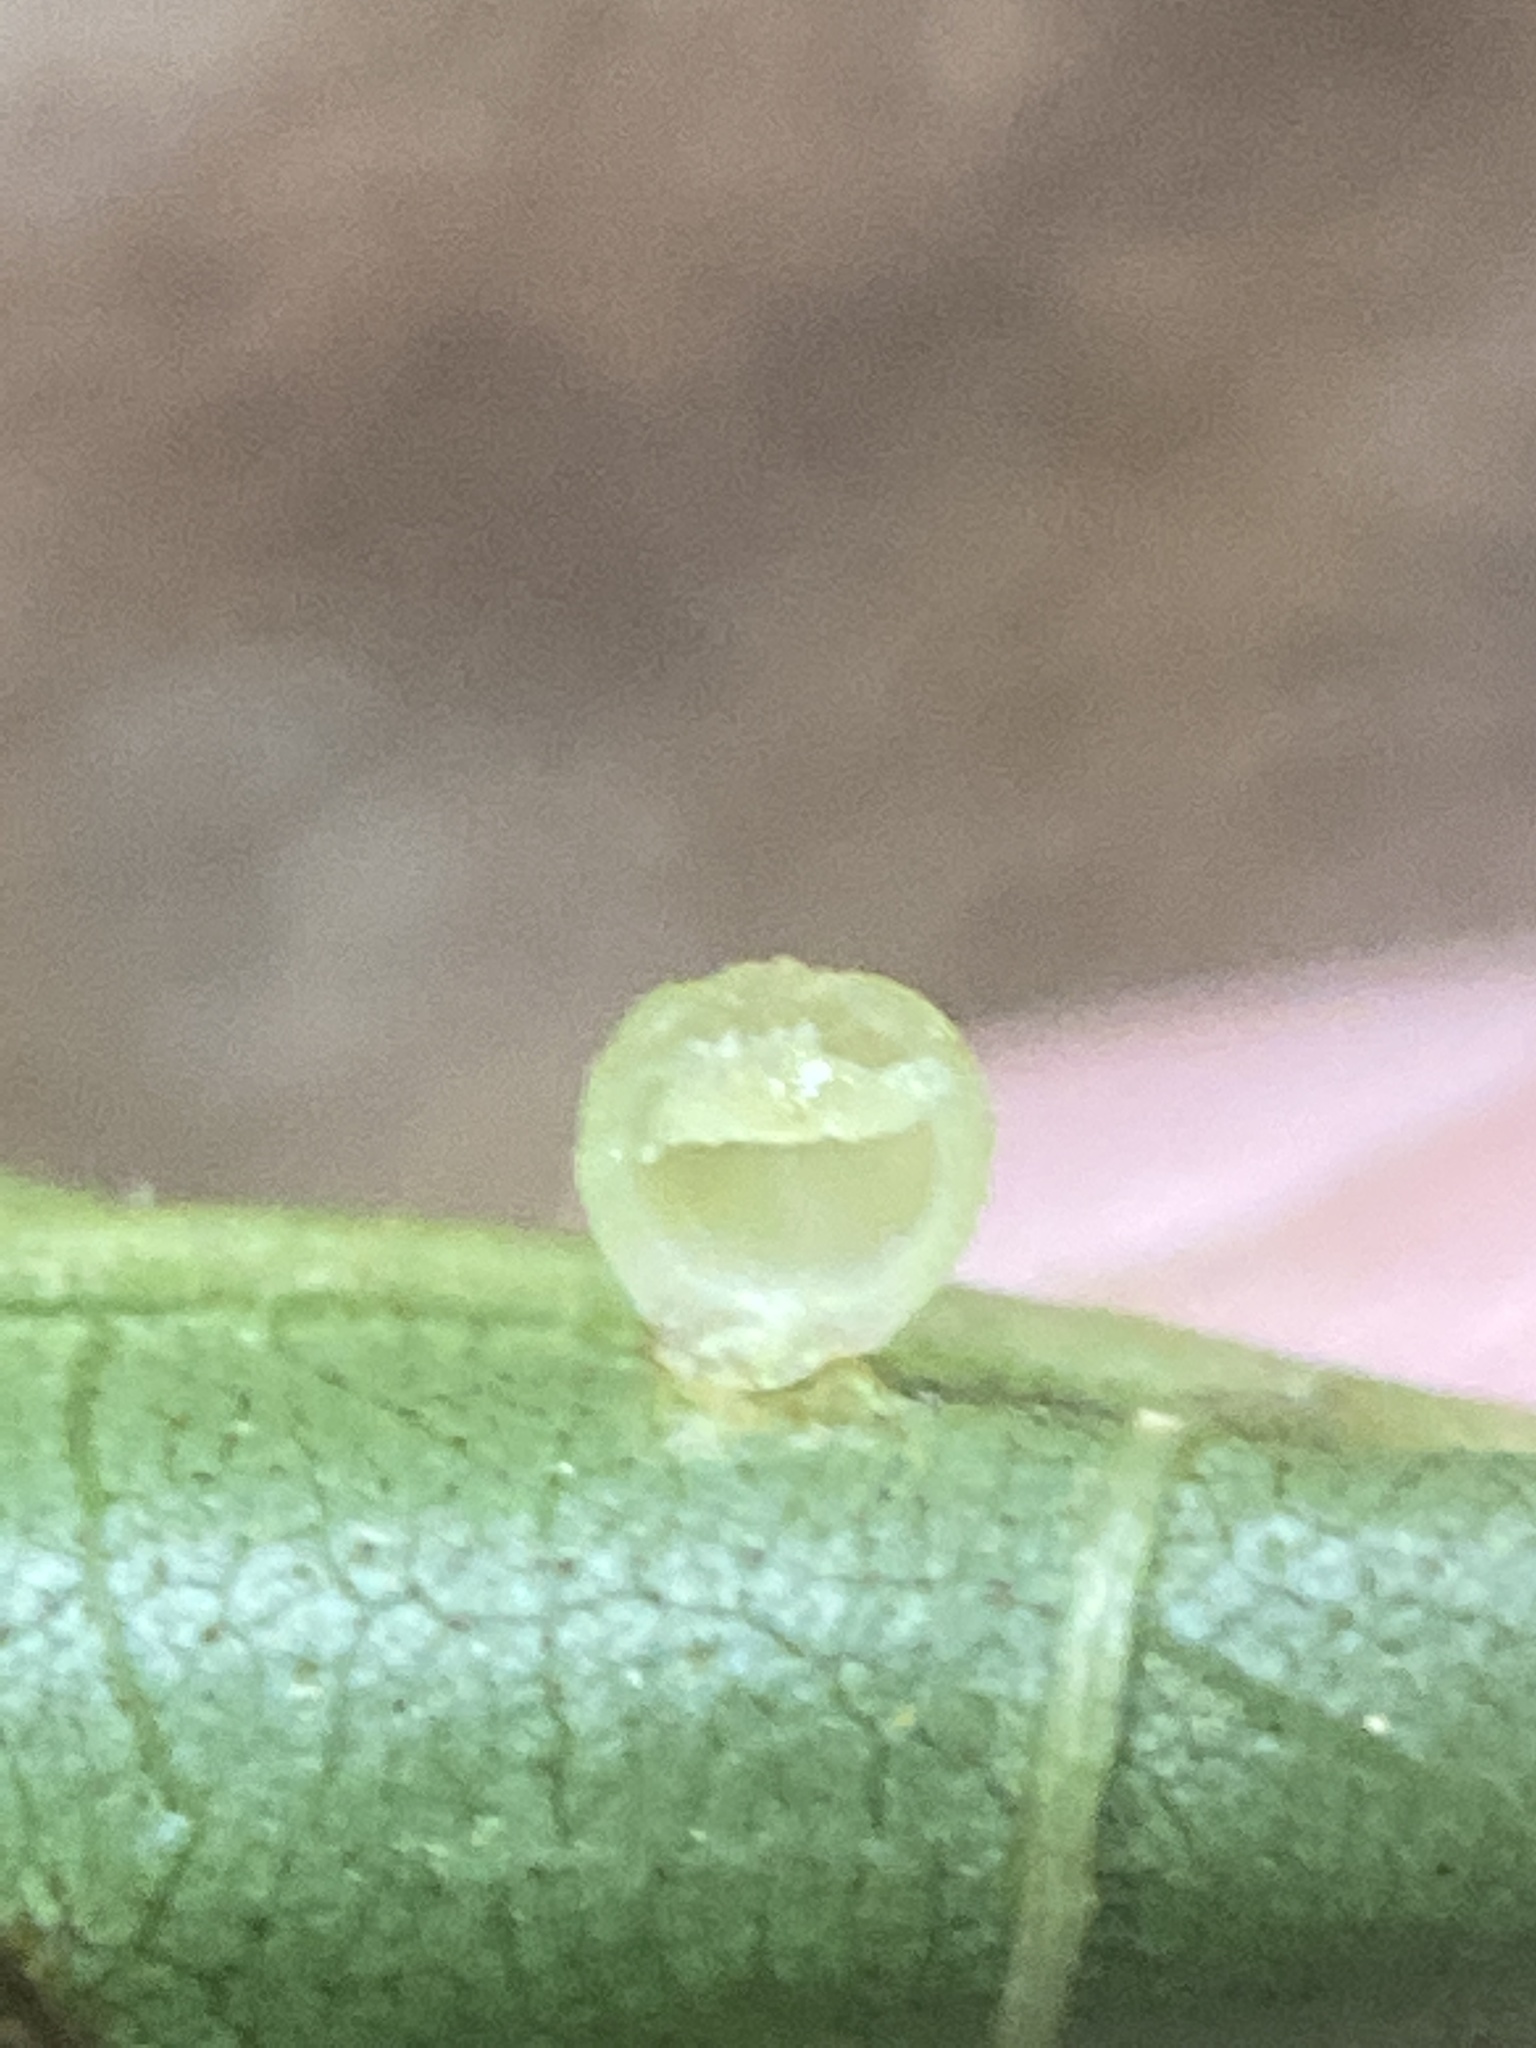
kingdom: Animalia
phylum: Arthropoda
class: Insecta
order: Diptera
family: Cecidomyiidae
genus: Caryomyia
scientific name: Caryomyia caryae
